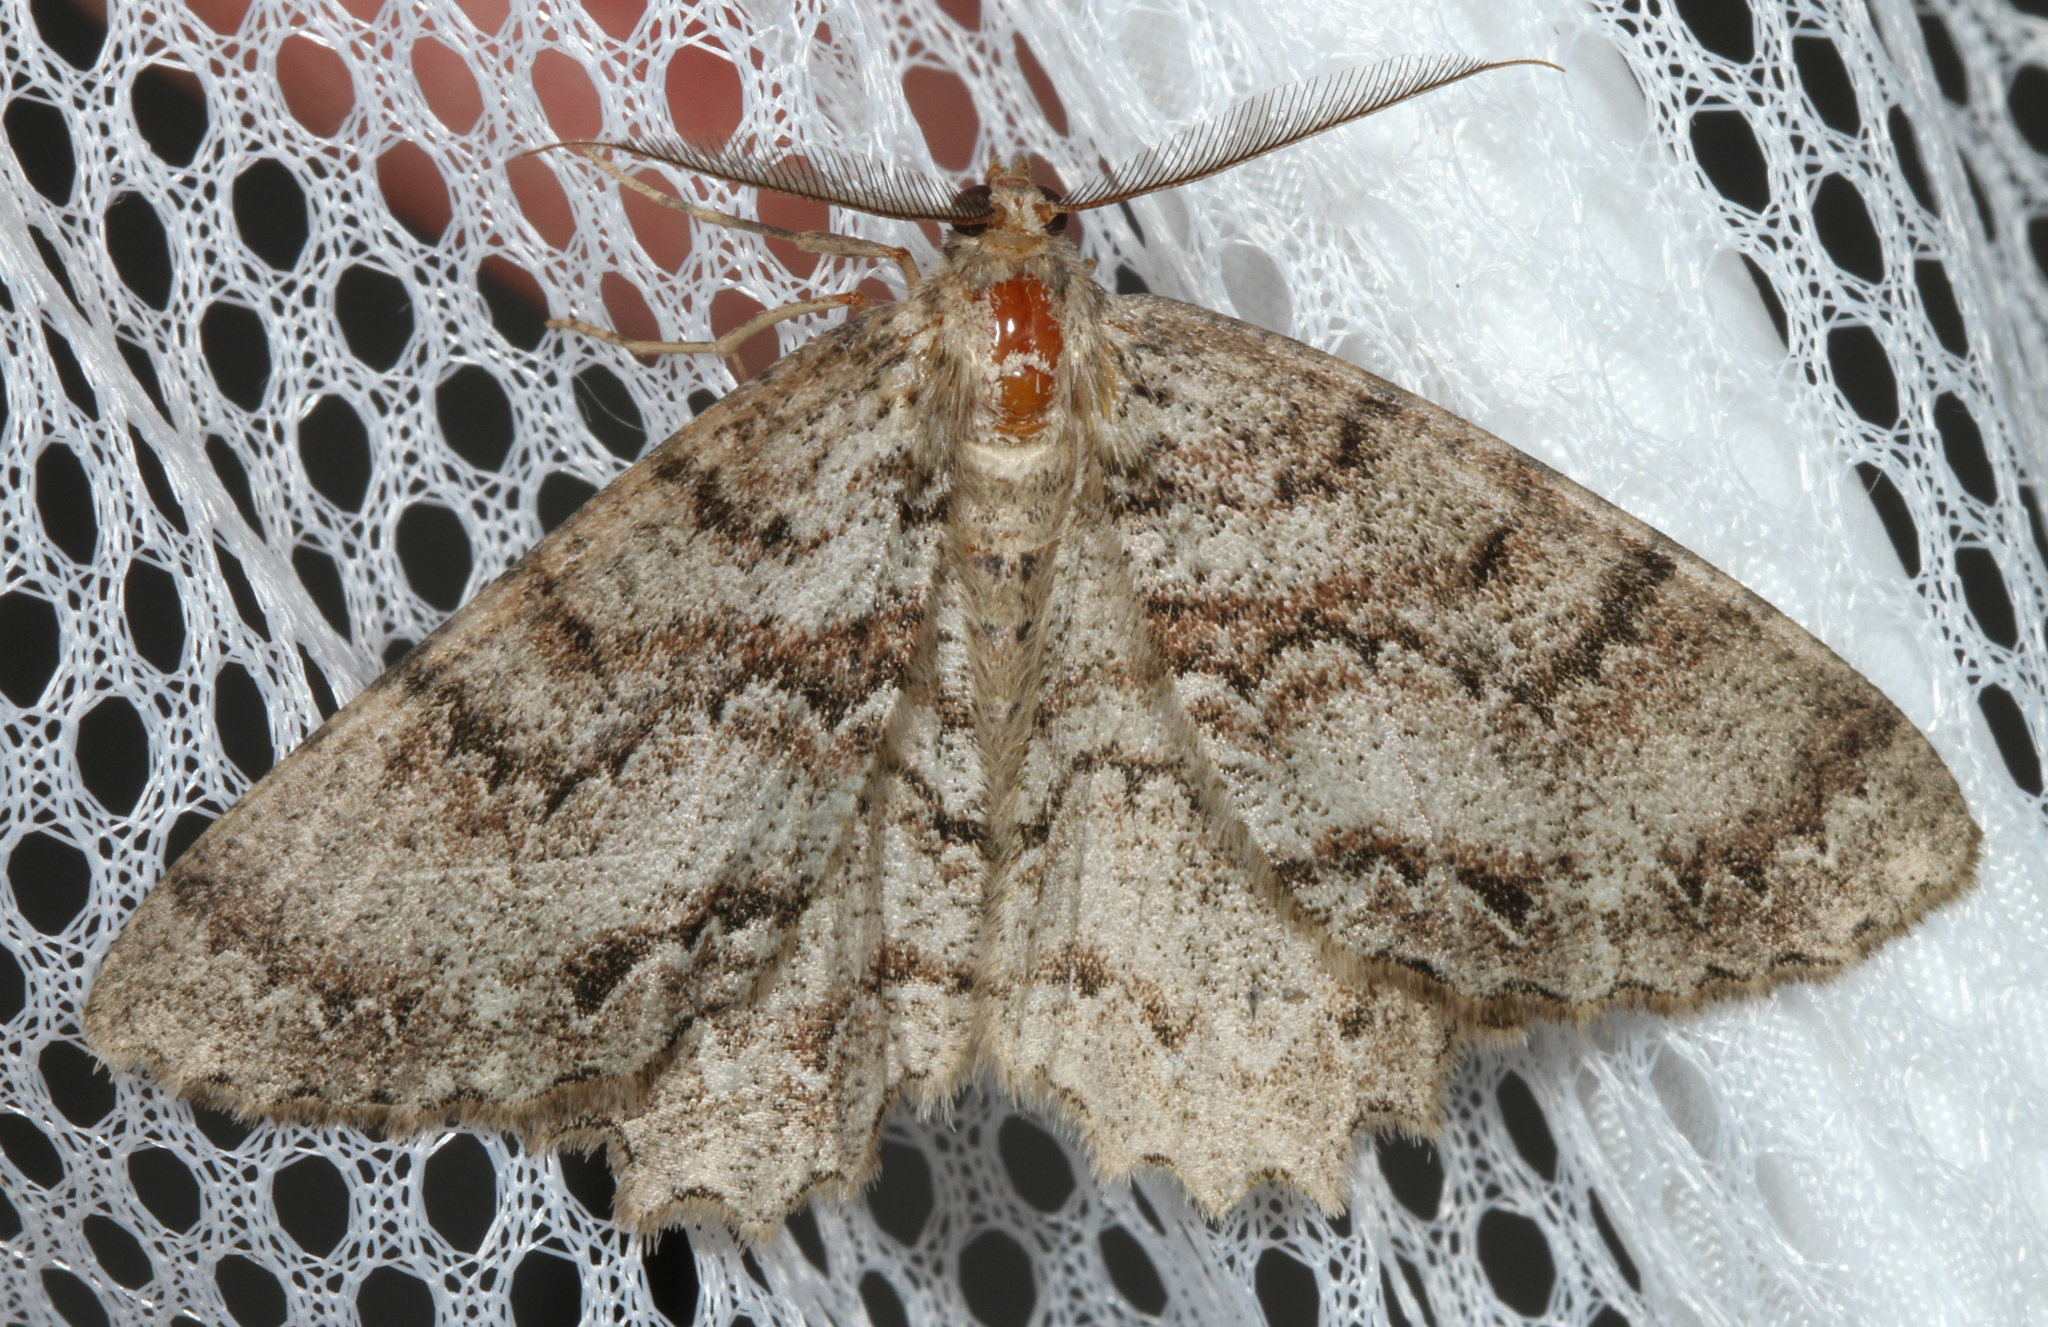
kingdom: Animalia
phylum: Arthropoda
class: Insecta
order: Lepidoptera
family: Geometridae
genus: Epimecis
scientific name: Epimecis hortaria
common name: Tulip-tree beauty
